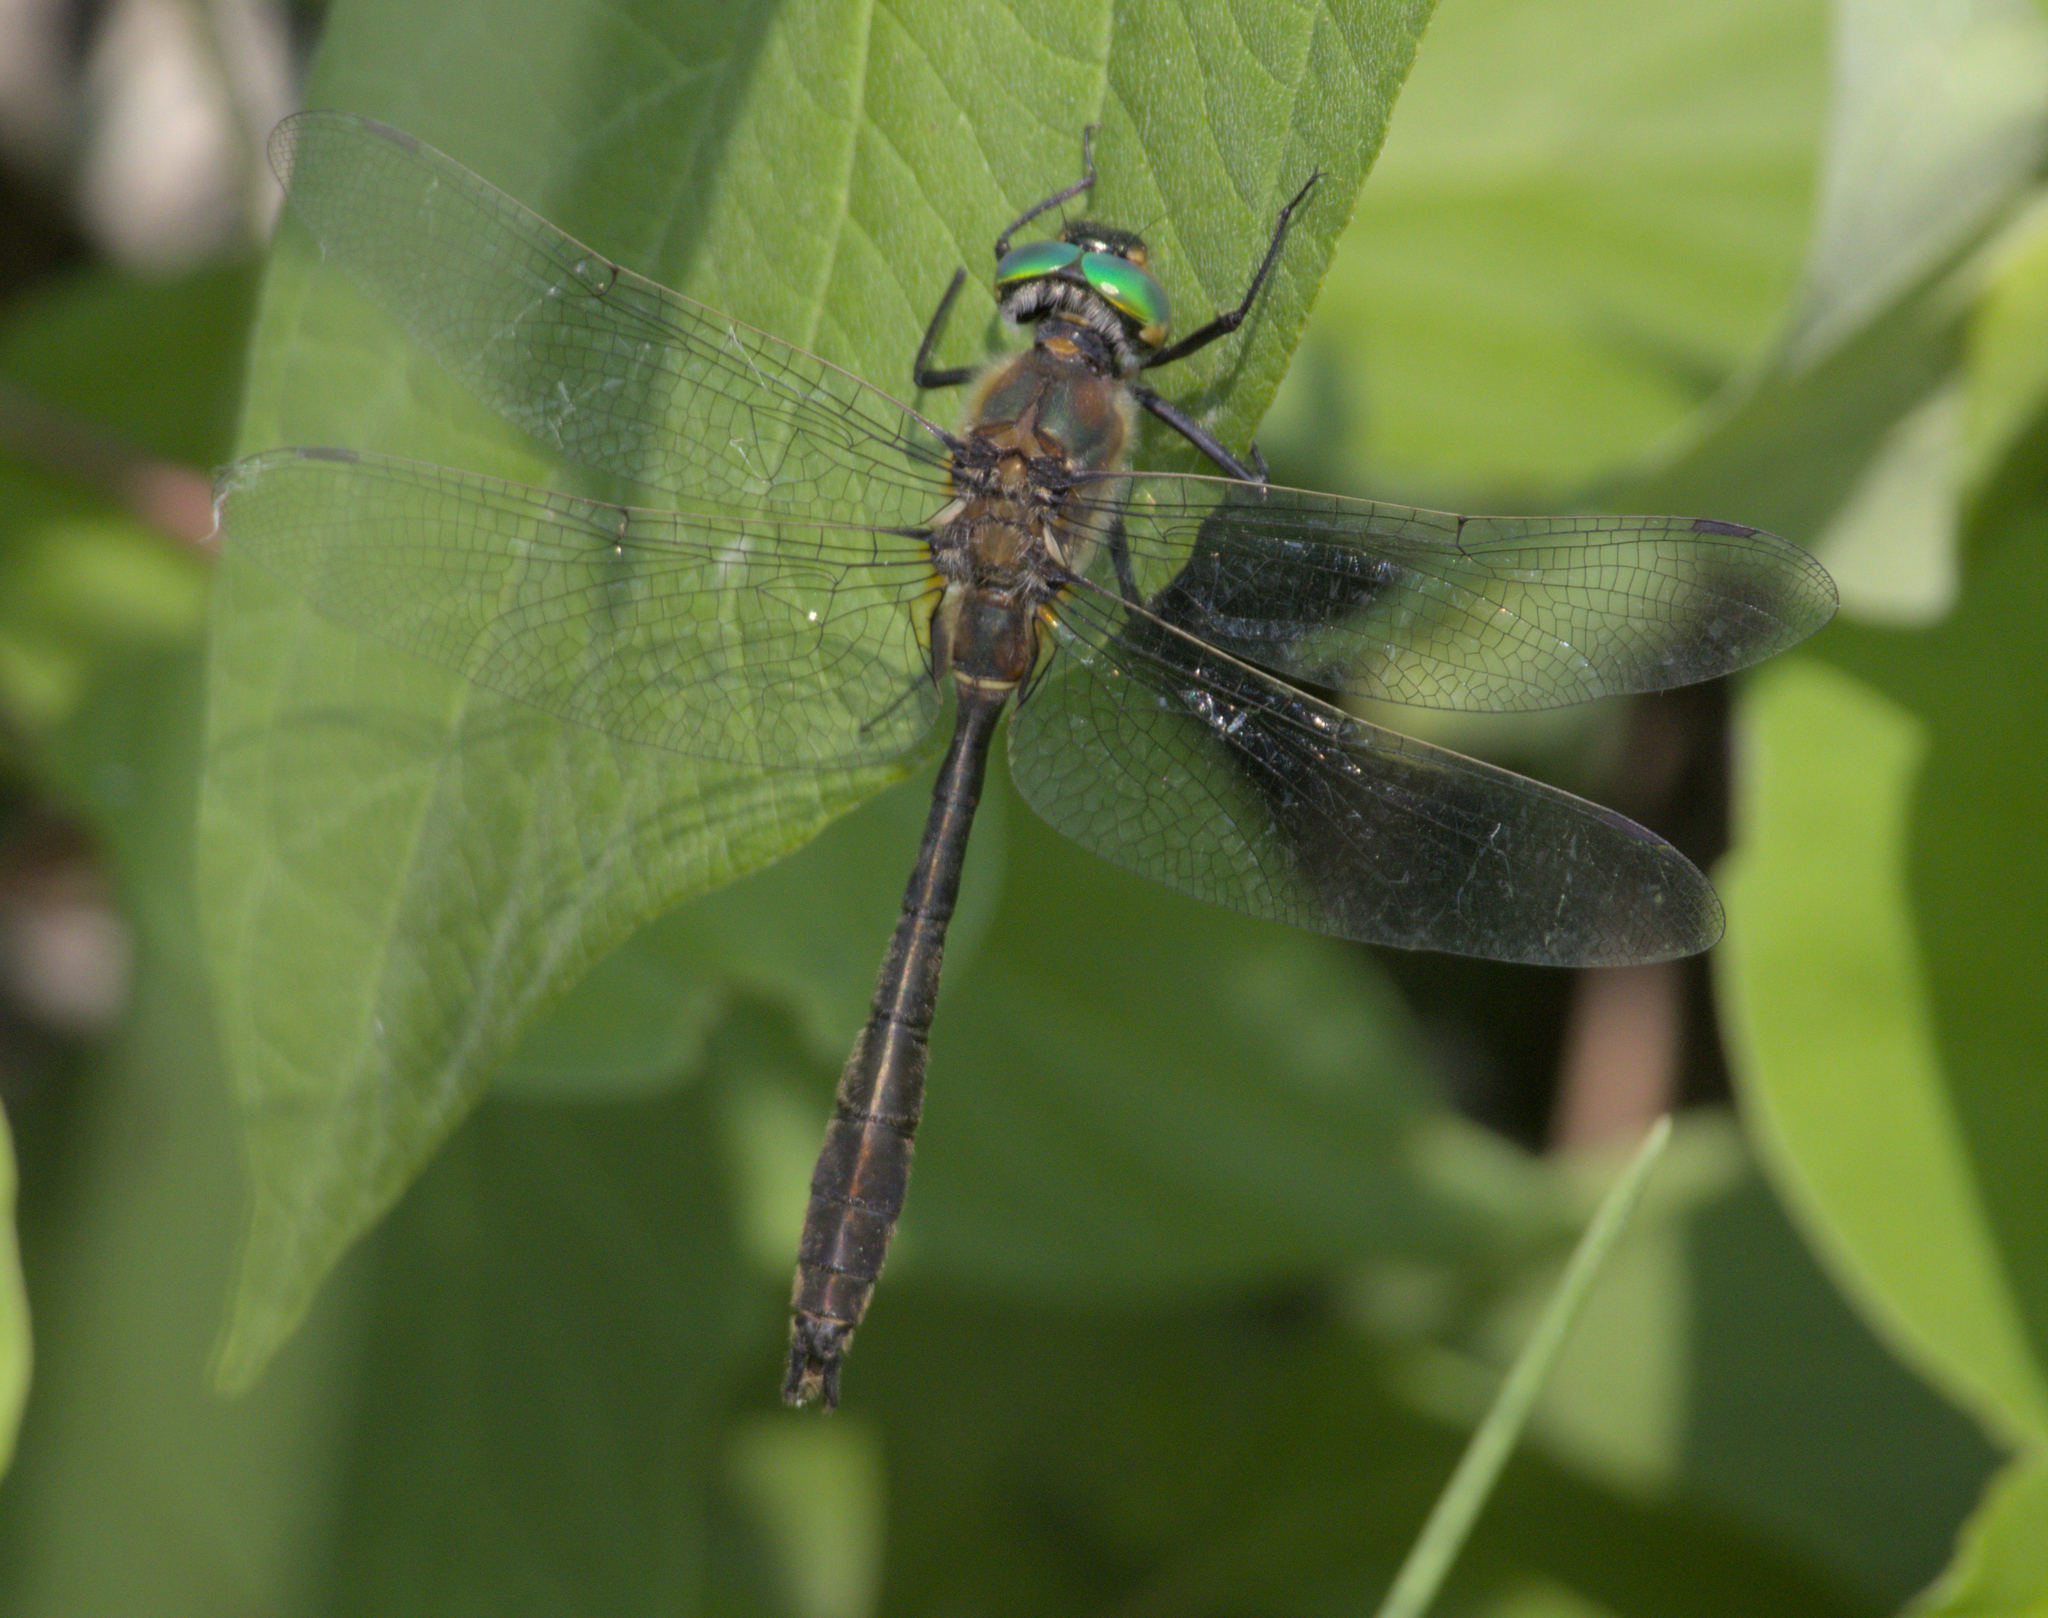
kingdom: Animalia
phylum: Arthropoda
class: Insecta
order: Odonata
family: Corduliidae
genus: Cordulia
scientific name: Cordulia shurtleffii
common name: American emerald
